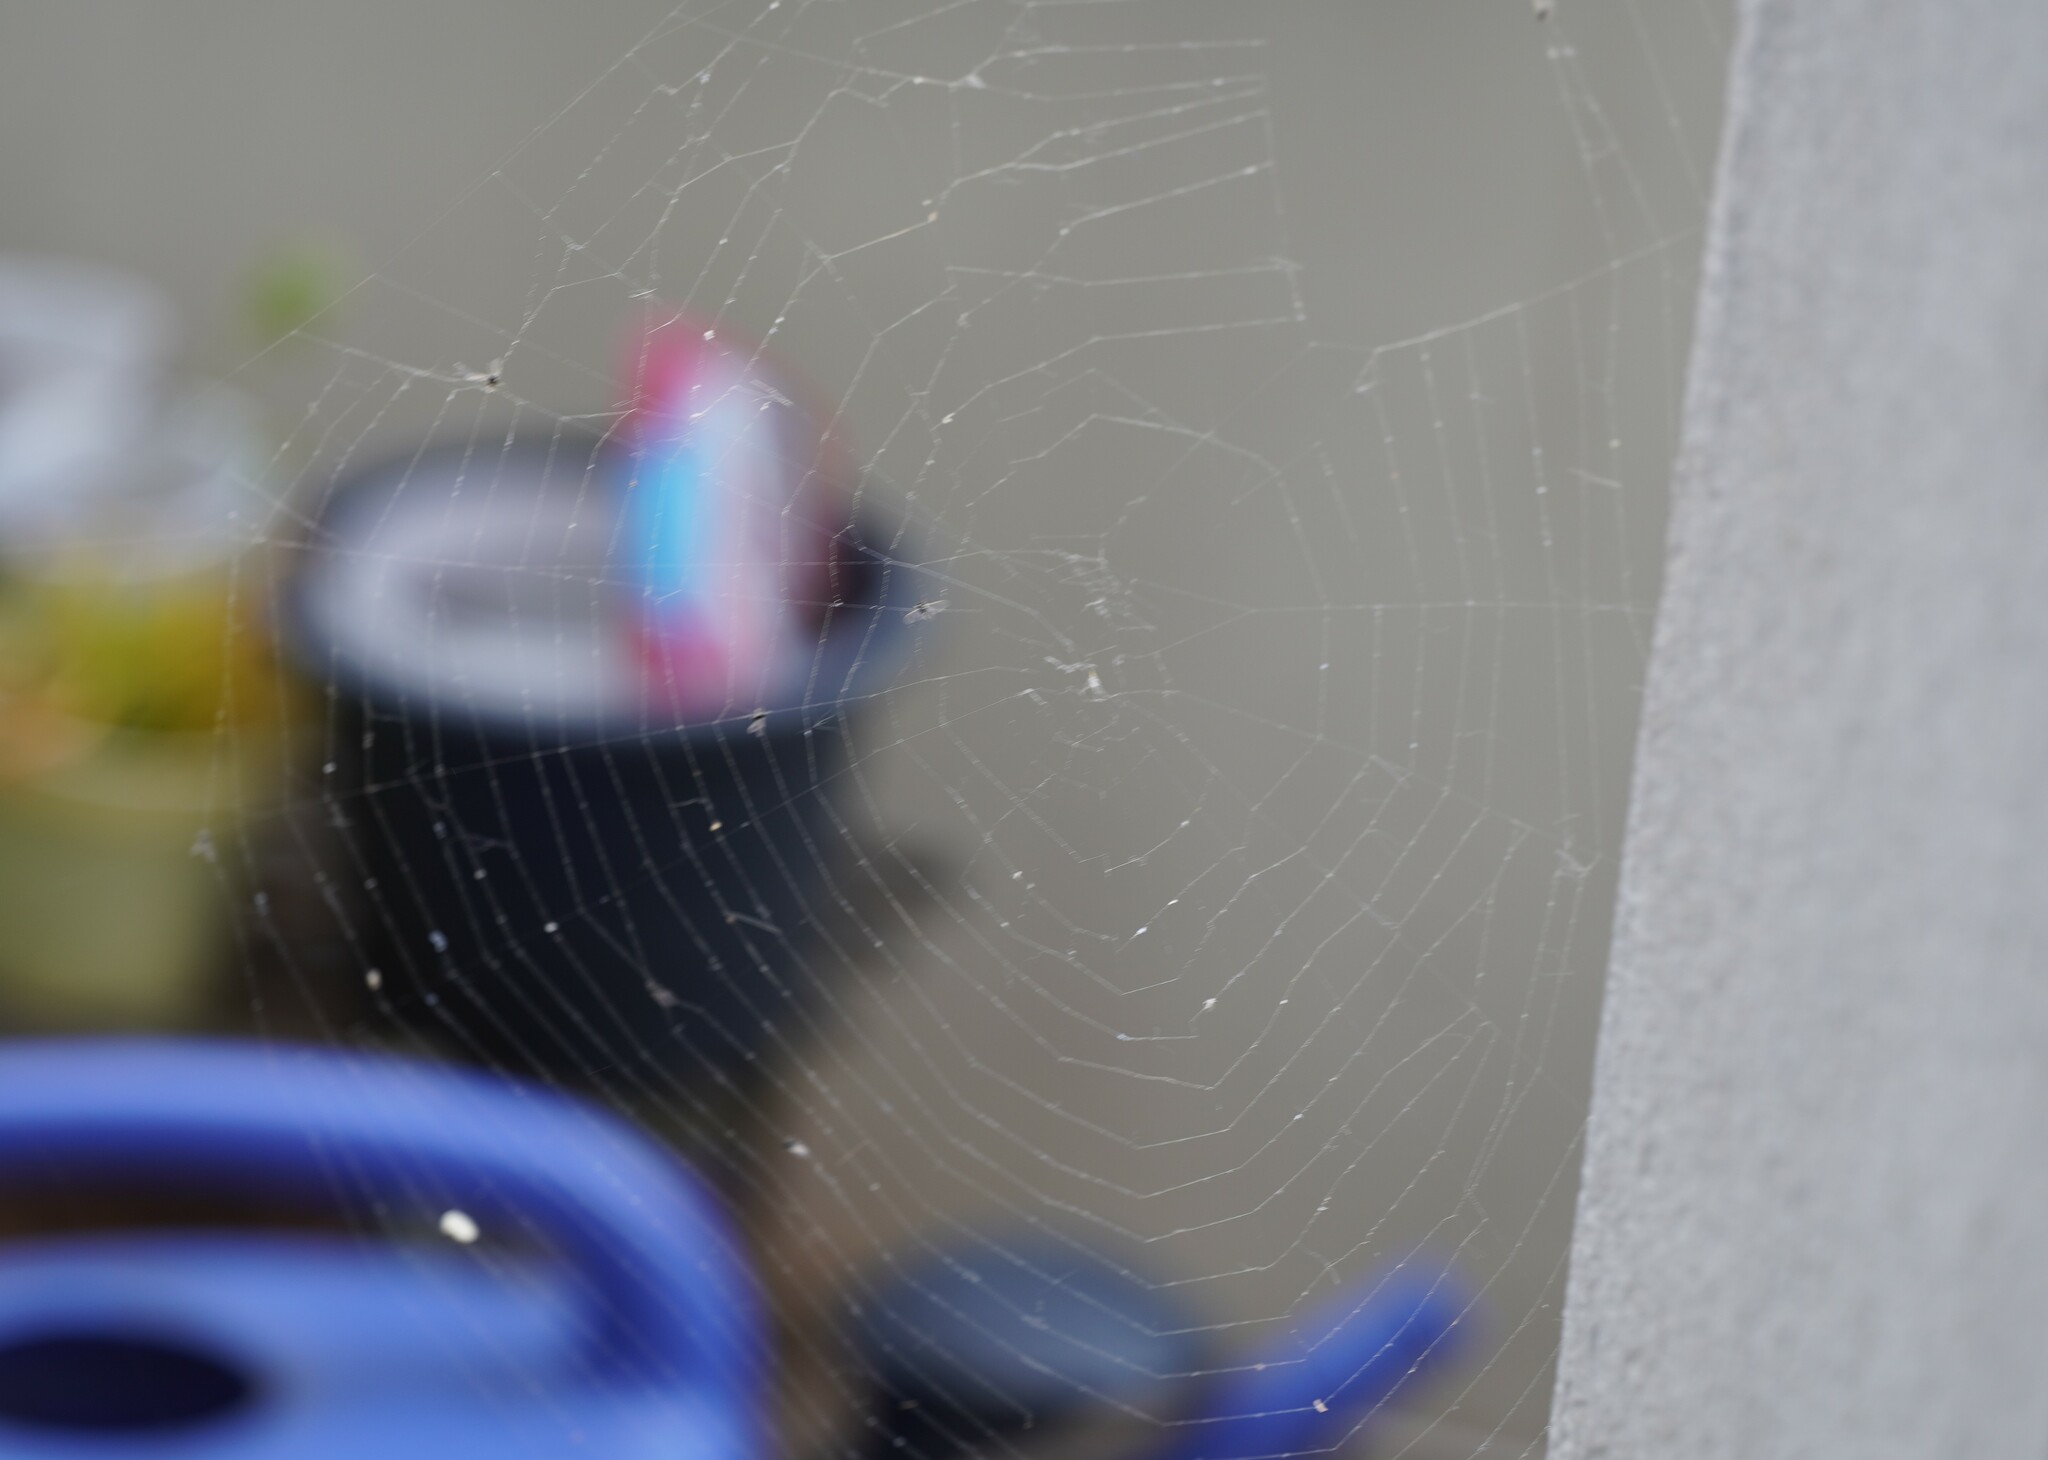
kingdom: Animalia
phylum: Arthropoda
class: Arachnida
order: Araneae
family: Araneidae
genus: Nuctenea
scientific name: Nuctenea umbratica
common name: Toad spider
